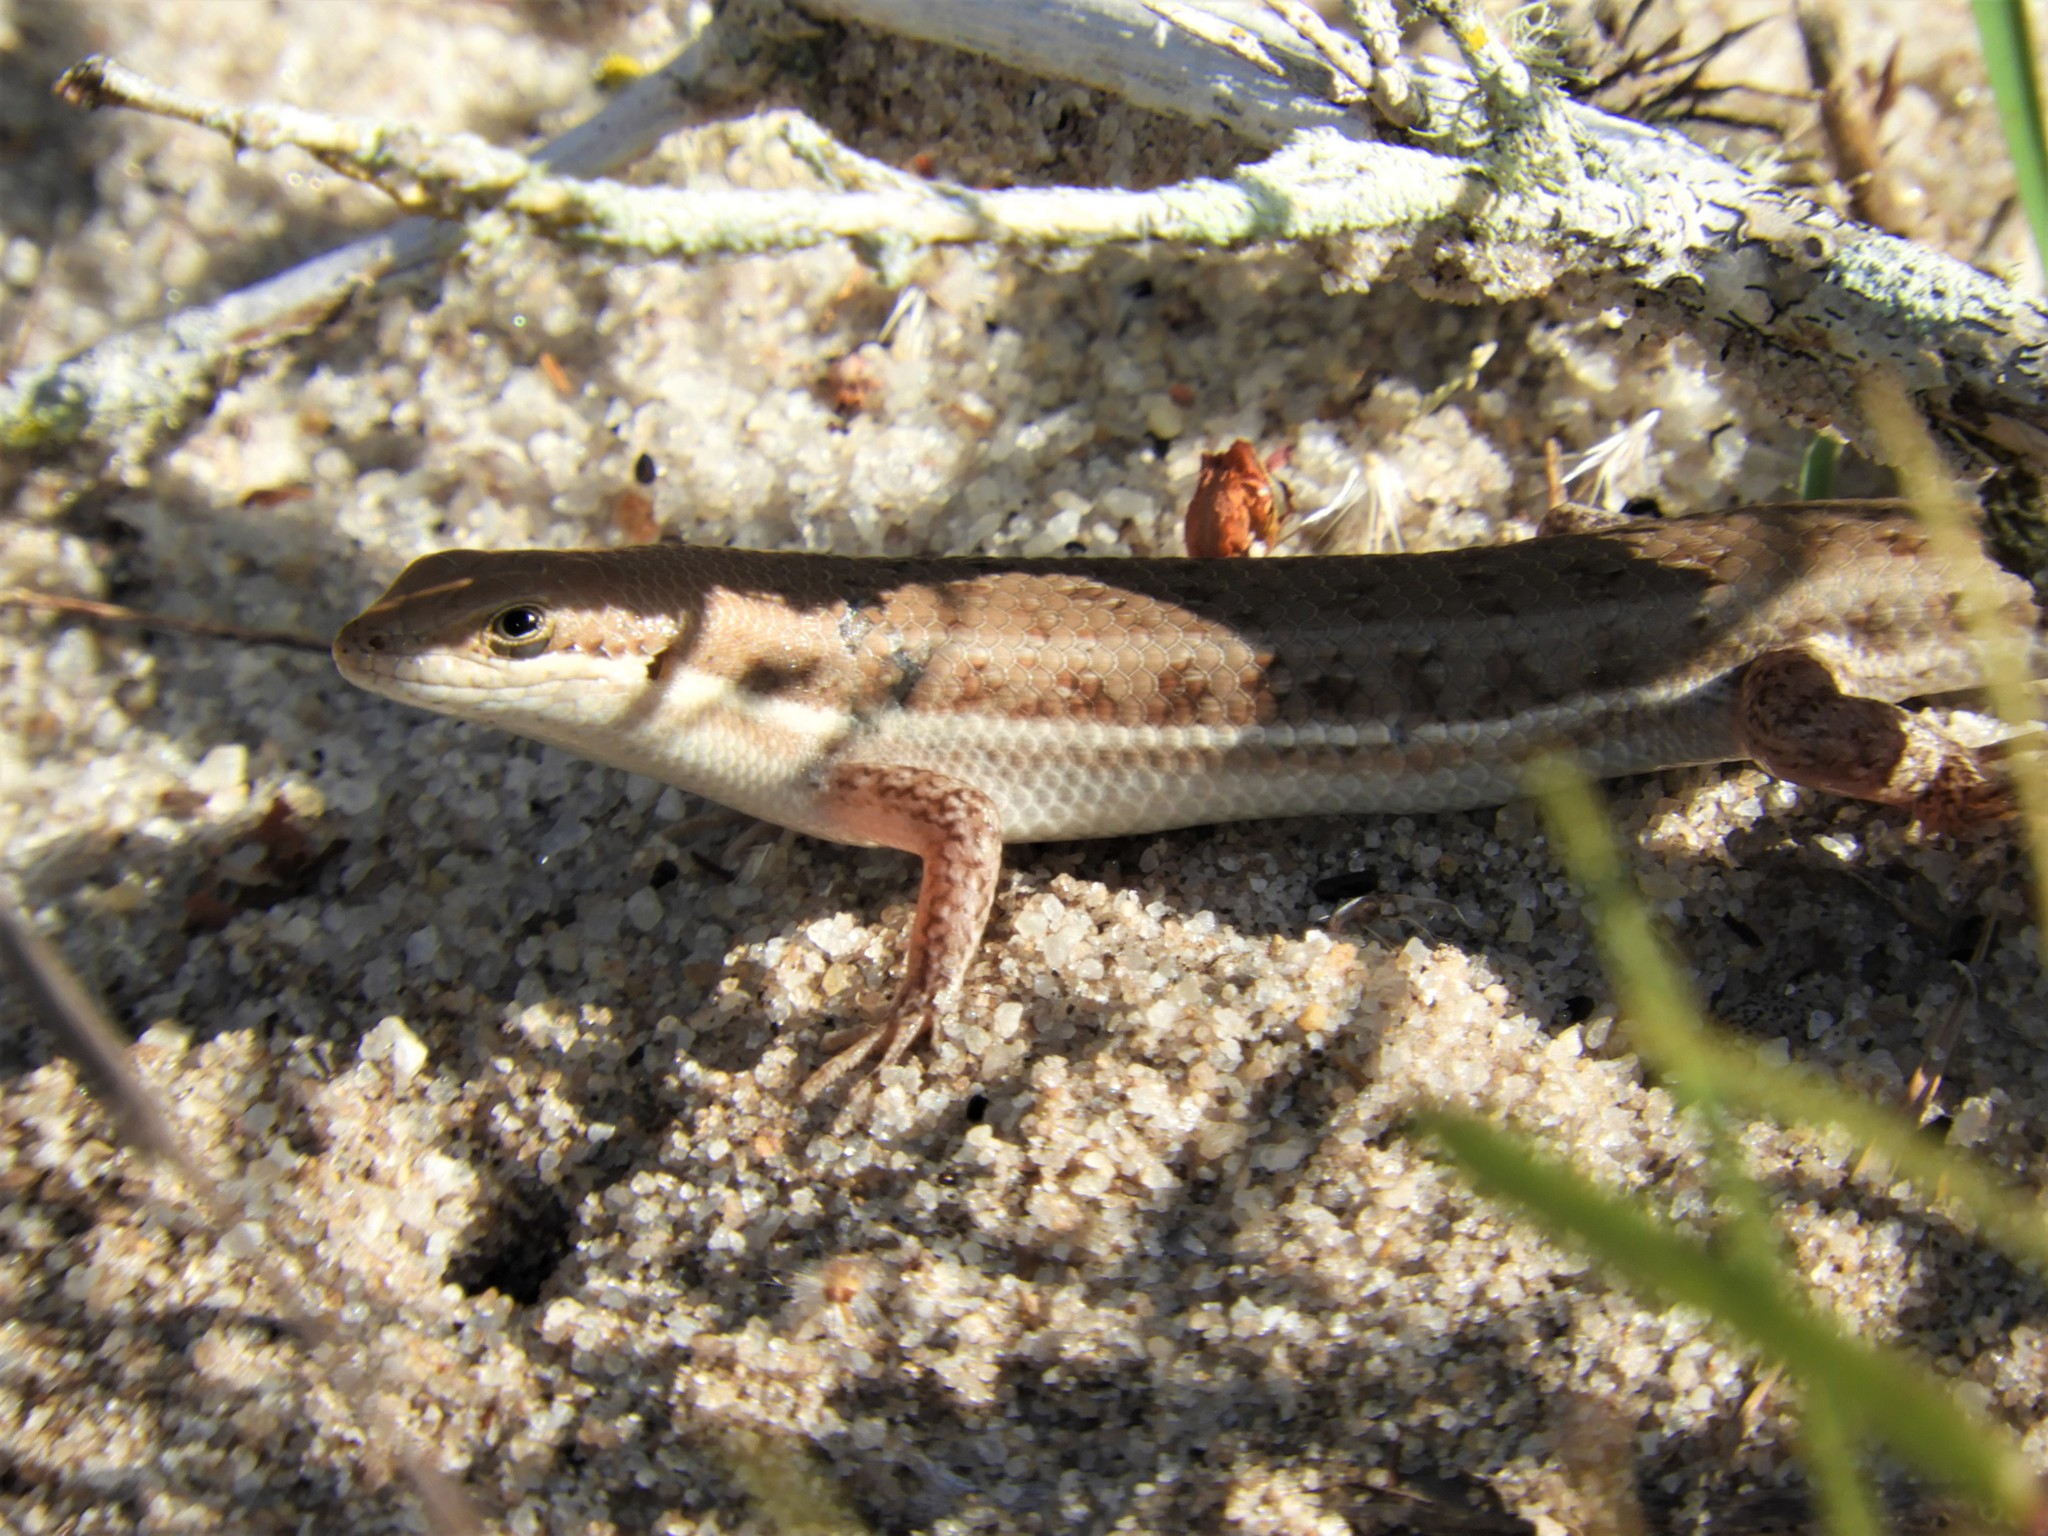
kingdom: Animalia
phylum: Chordata
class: Squamata
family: Scincidae
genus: Trachylepis
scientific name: Trachylepis varia
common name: Eastern variable skink
